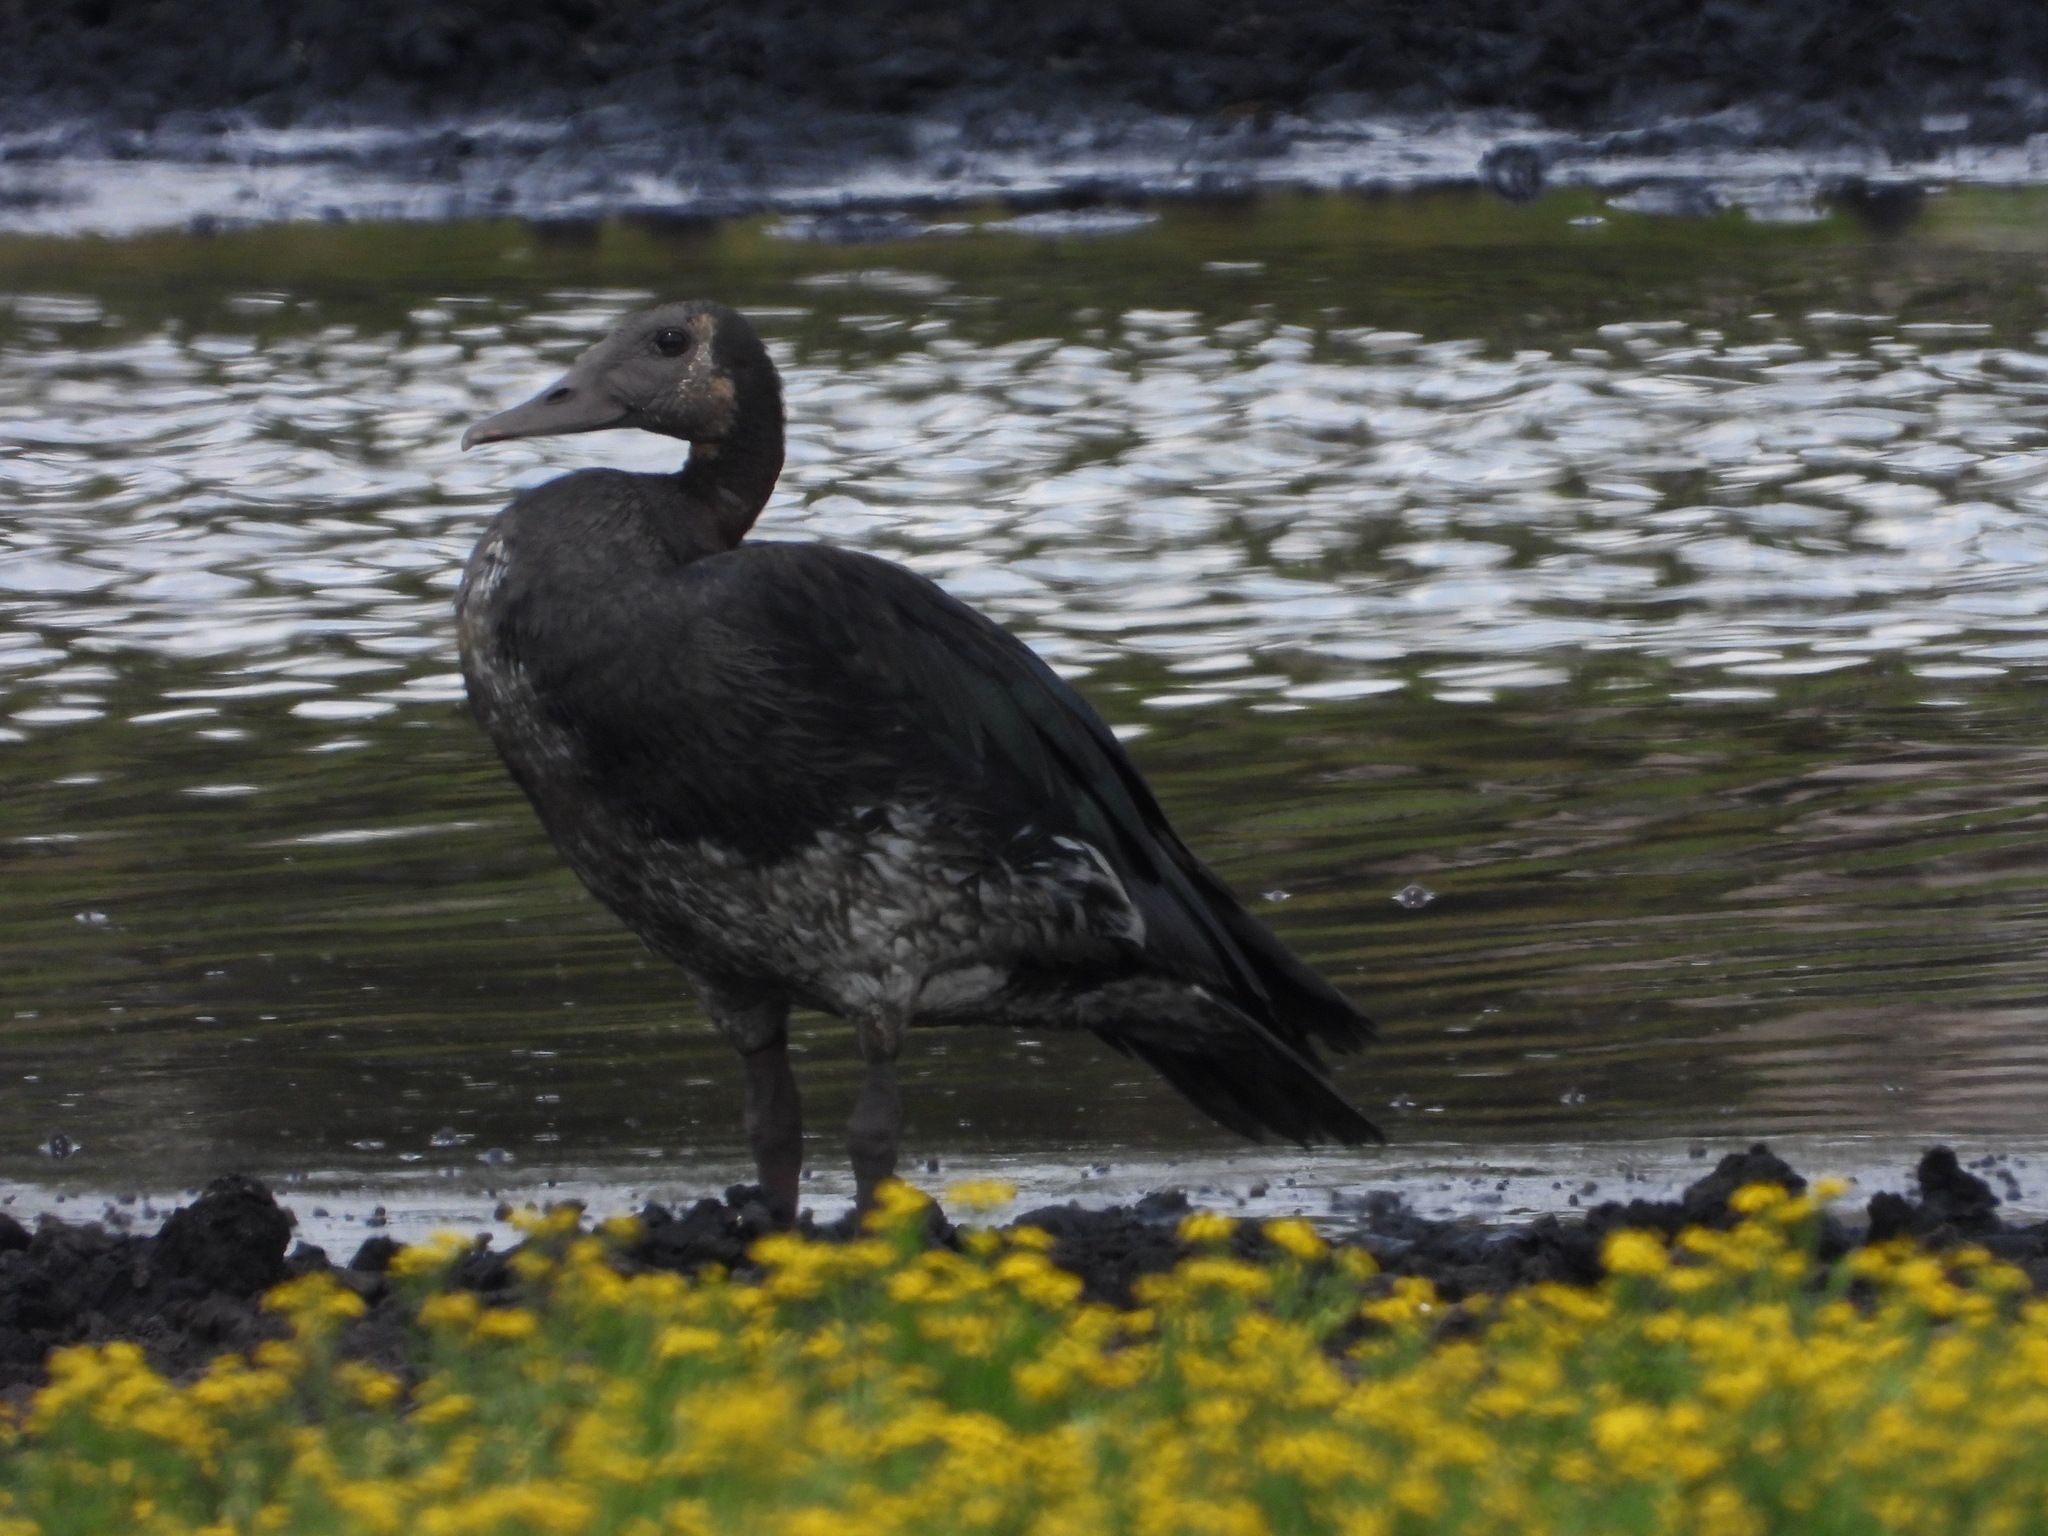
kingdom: Animalia
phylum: Chordata
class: Aves
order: Anseriformes
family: Anatidae
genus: Plectropterus
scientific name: Plectropterus gambensis
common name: Spur-winged goose
